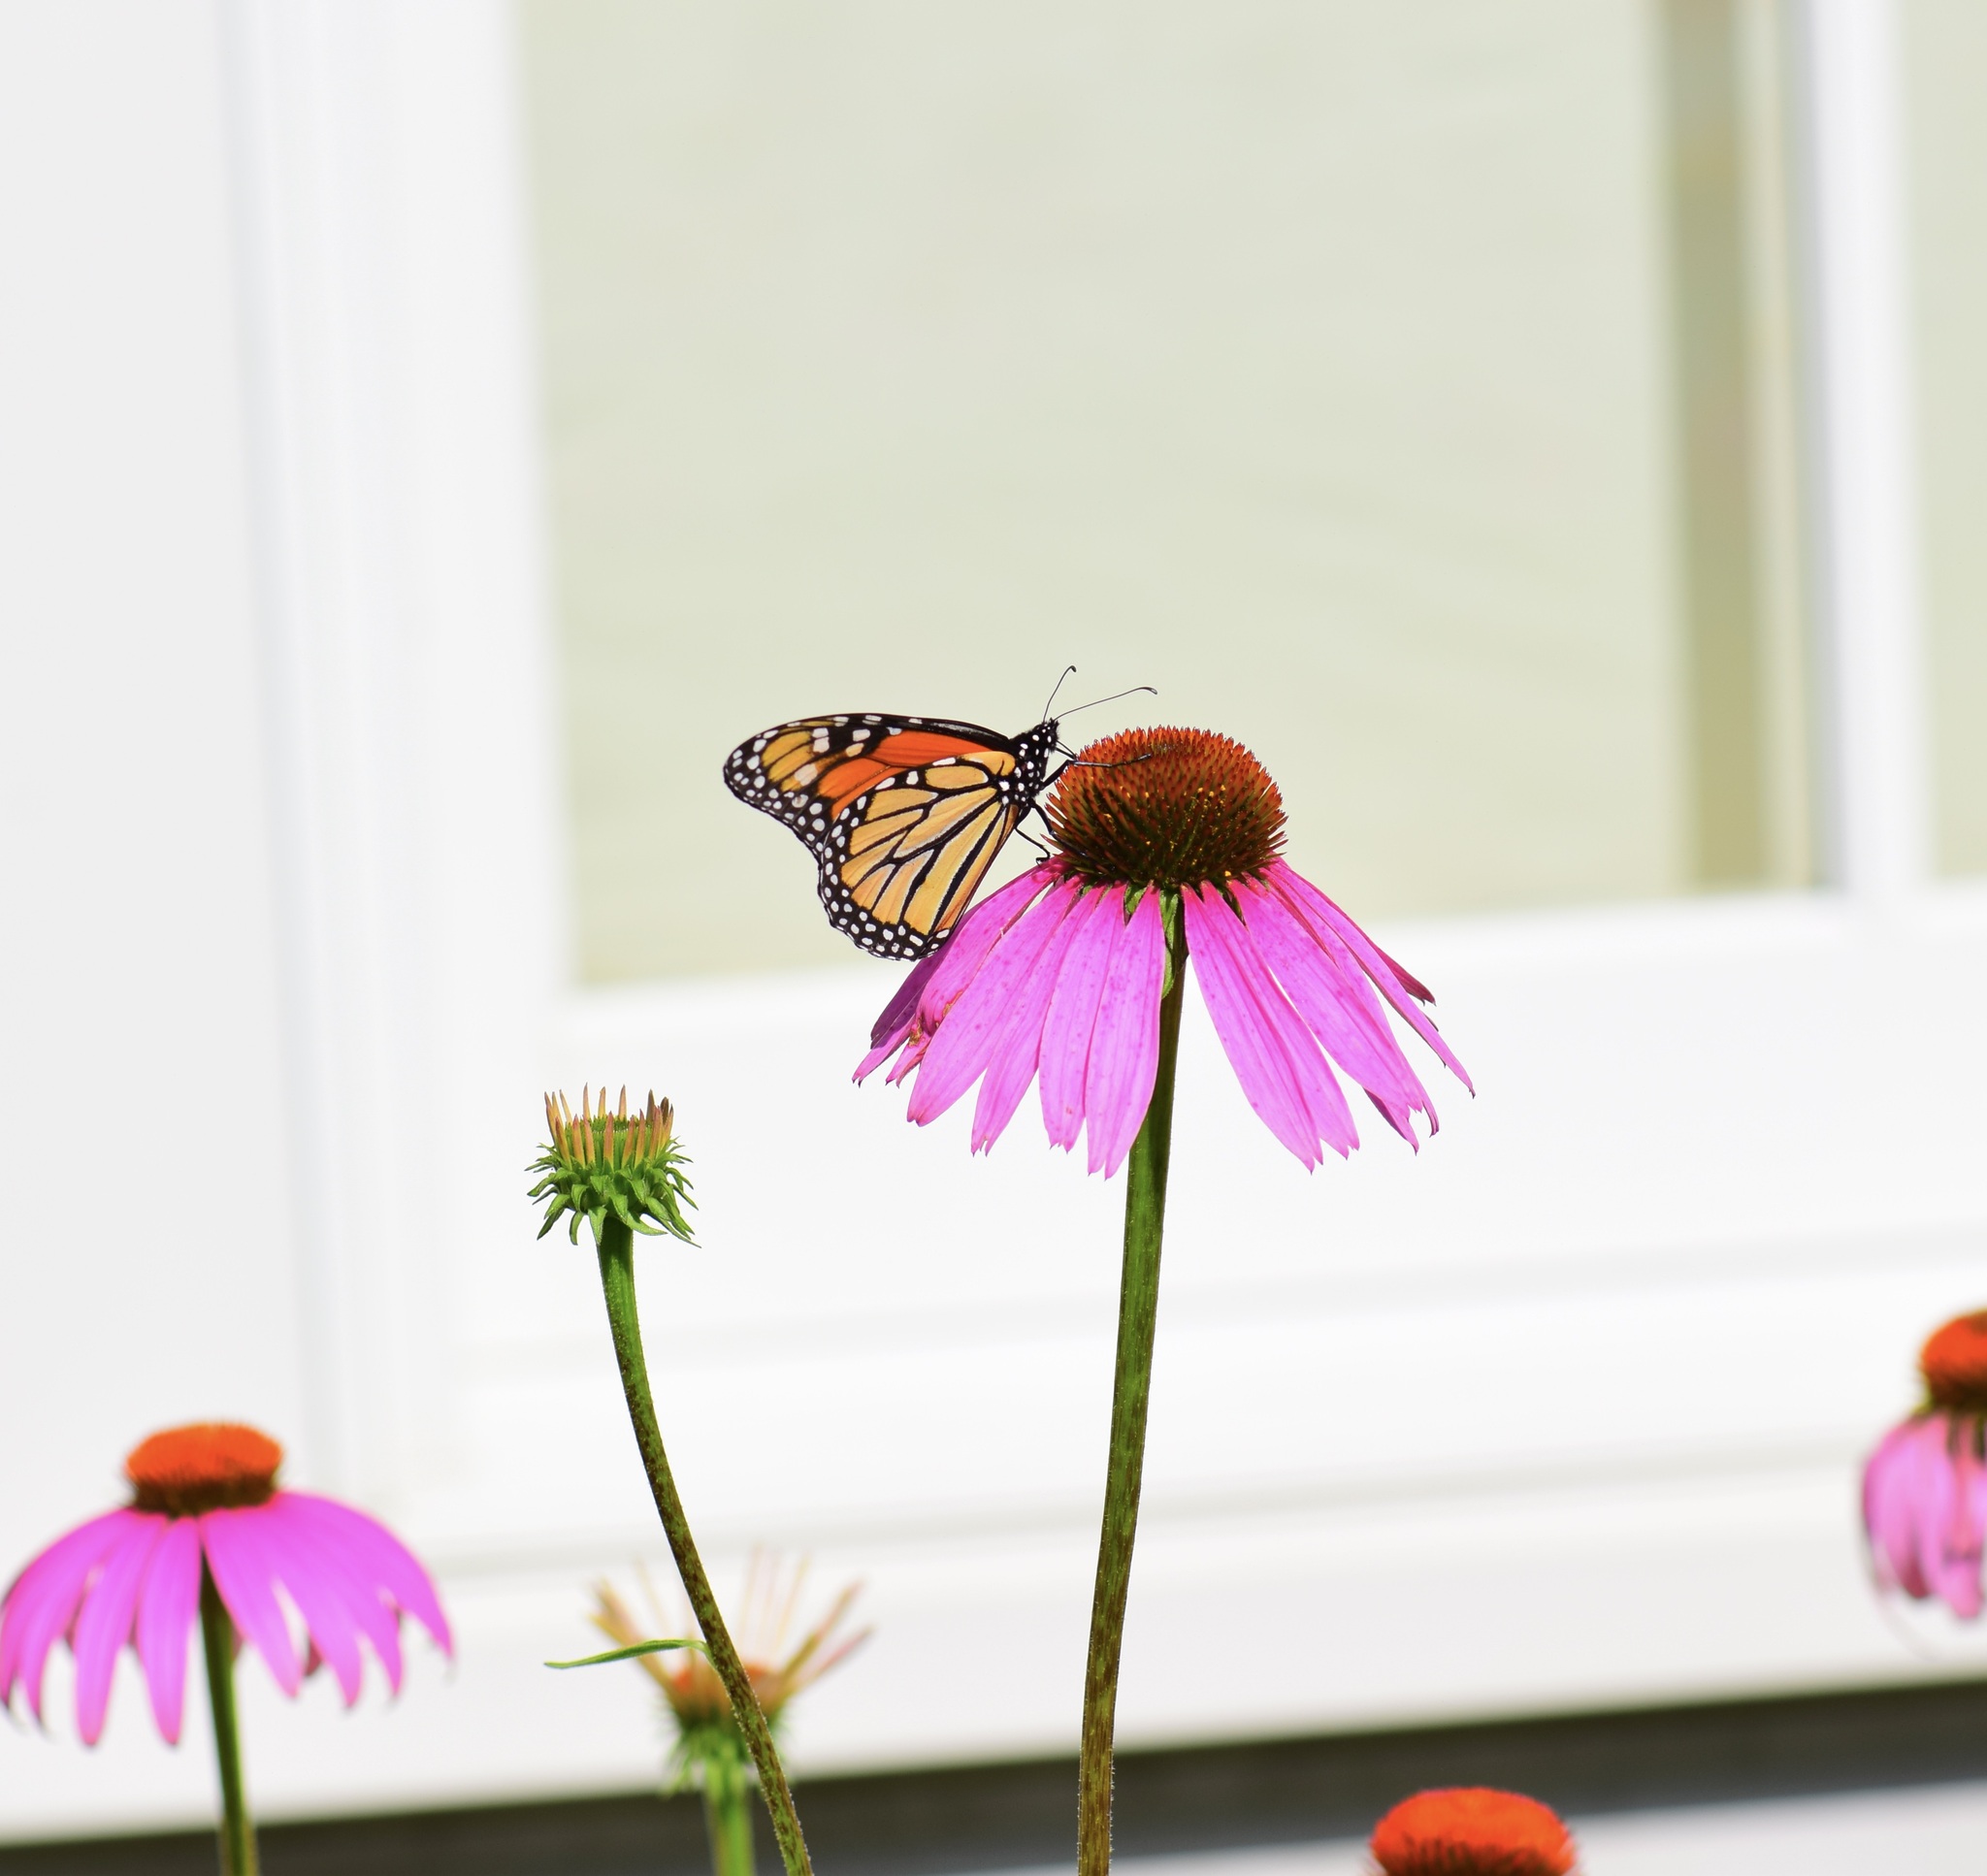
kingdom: Animalia
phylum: Arthropoda
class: Insecta
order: Lepidoptera
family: Nymphalidae
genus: Danaus
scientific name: Danaus plexippus
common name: Monarch
